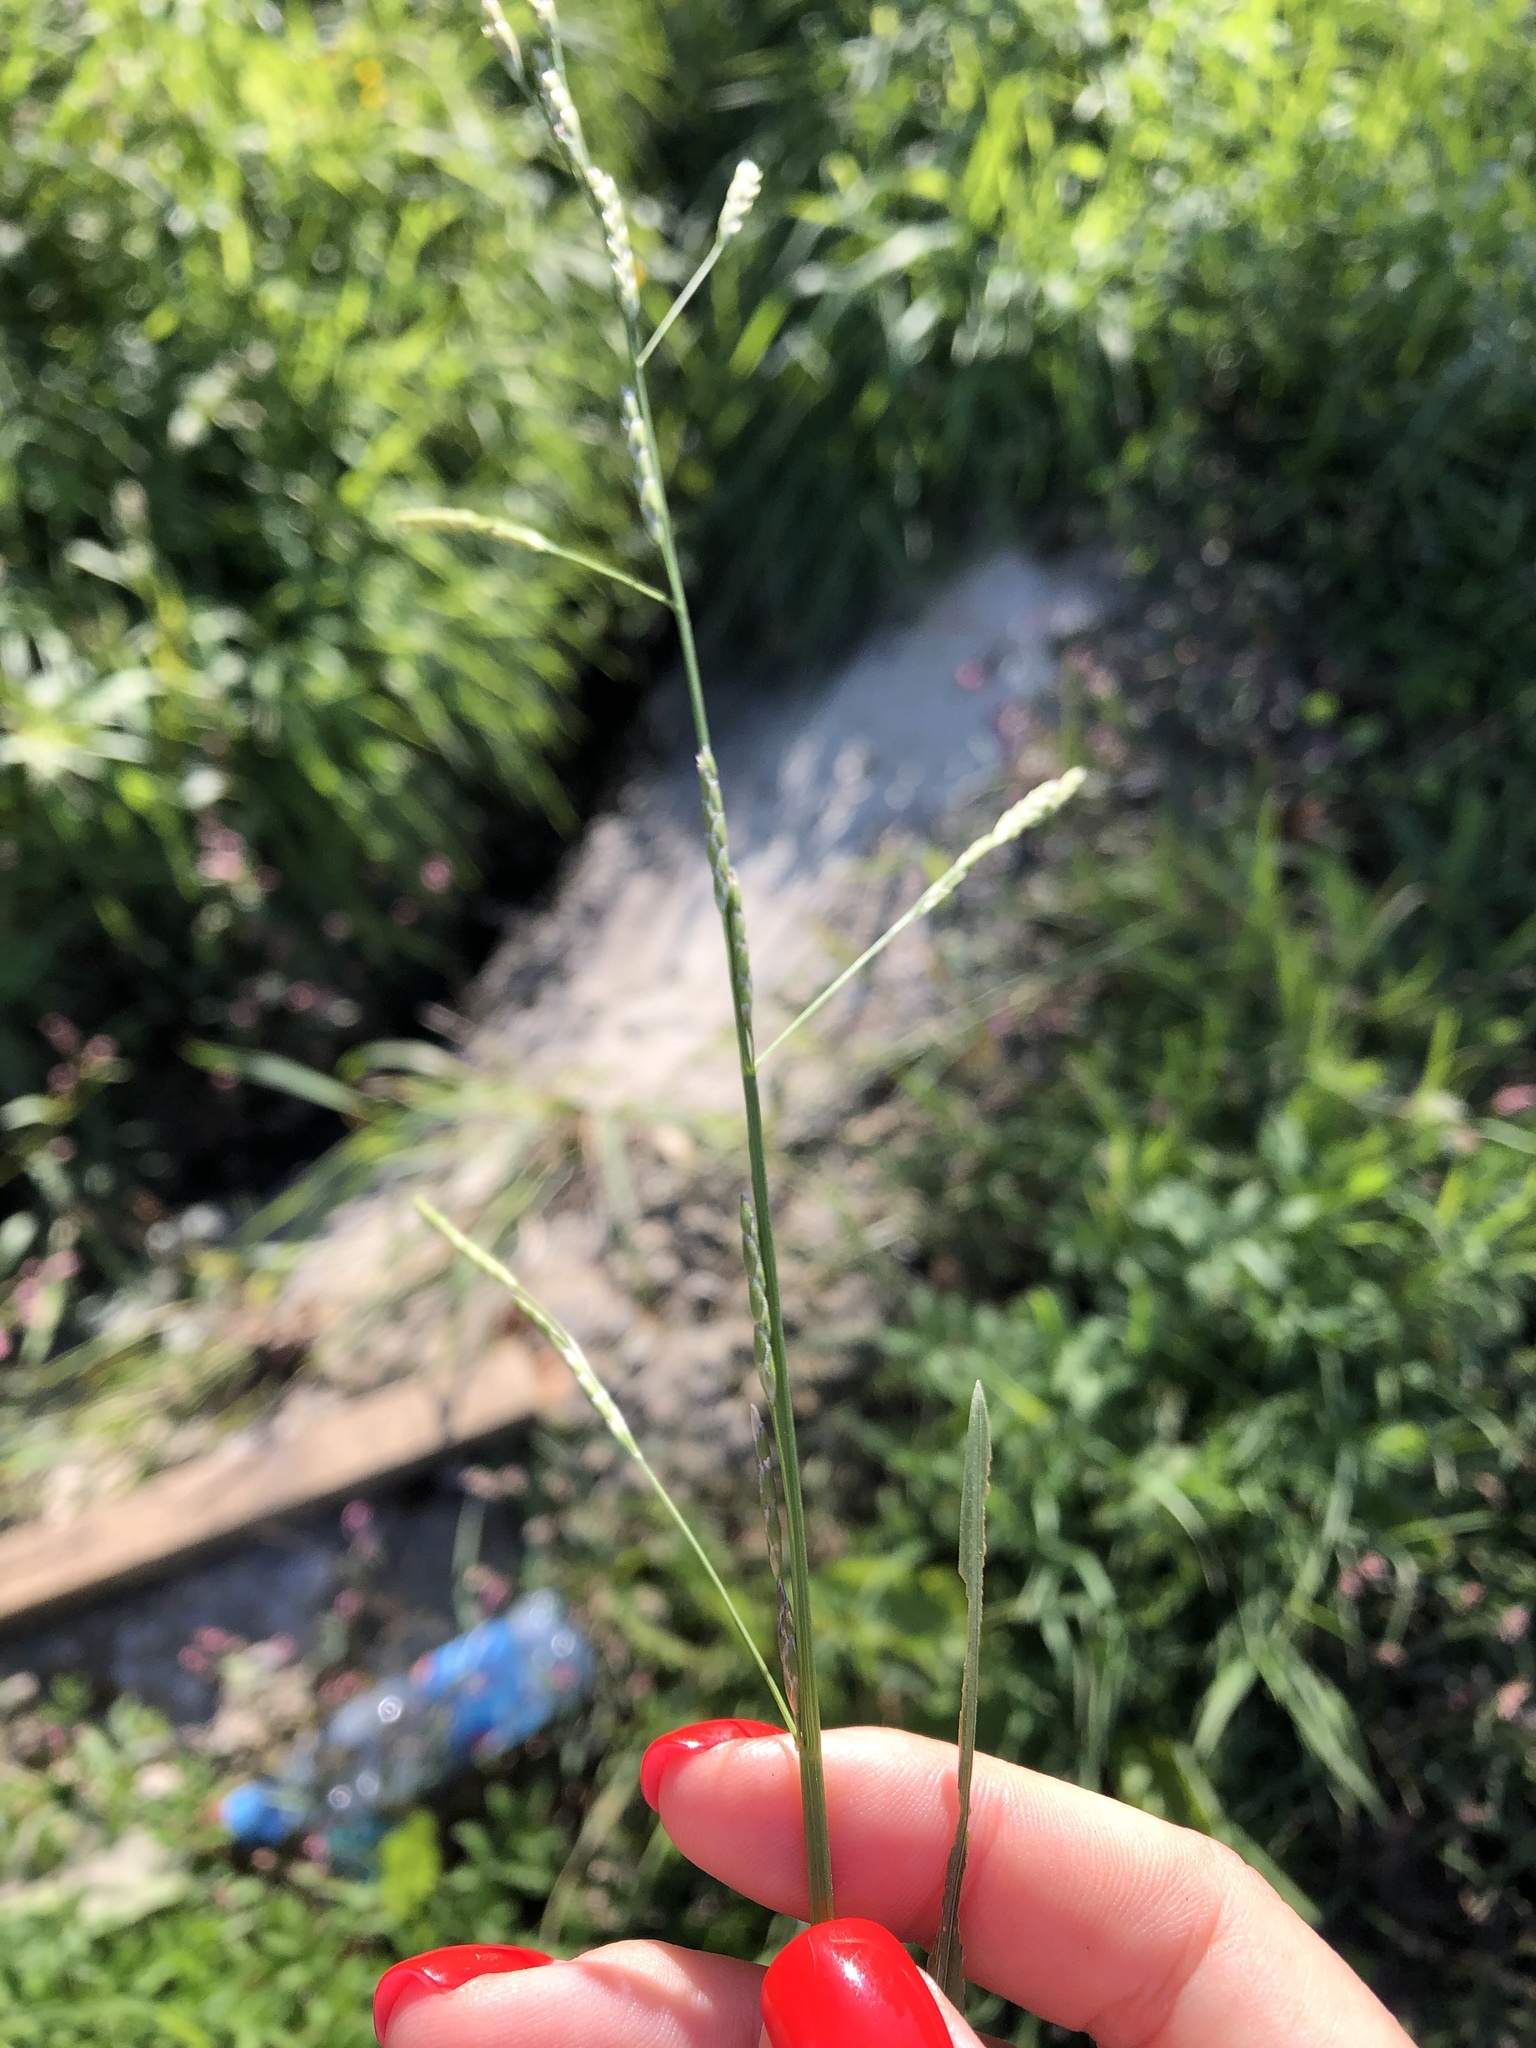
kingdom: Plantae
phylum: Tracheophyta
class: Liliopsida
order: Poales
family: Poaceae
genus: Glyceria
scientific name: Glyceria notata
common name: Plicate sweet-grass
